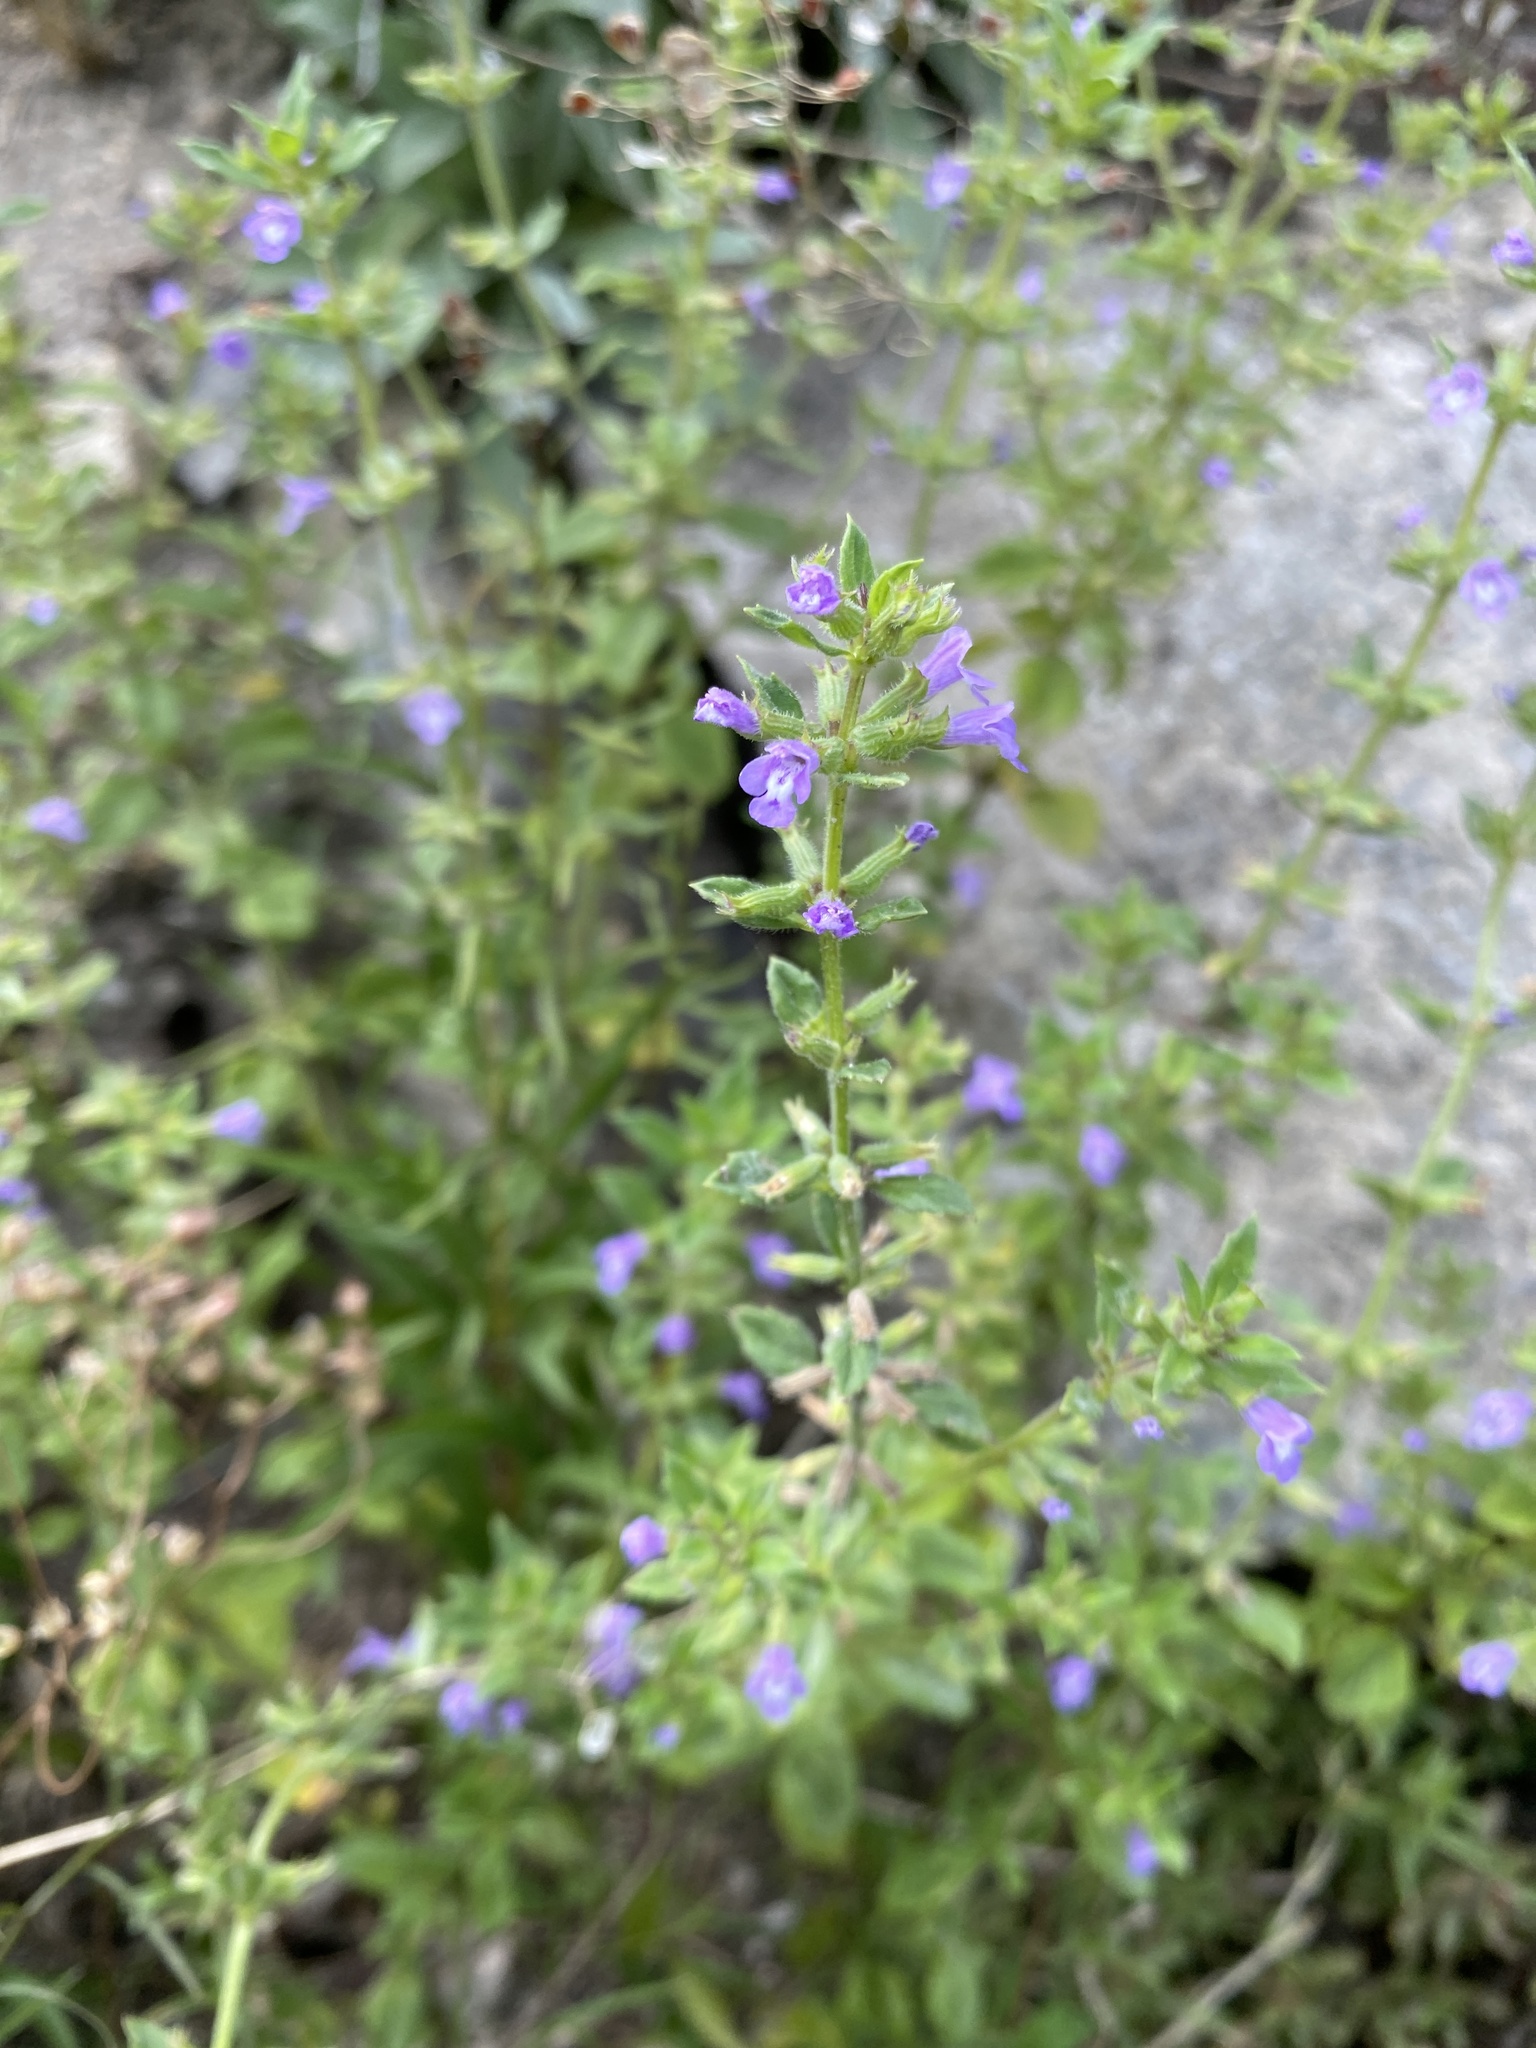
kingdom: Plantae
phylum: Tracheophyta
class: Magnoliopsida
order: Lamiales
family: Lamiaceae
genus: Clinopodium
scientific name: Clinopodium acinos
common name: Basil thyme
